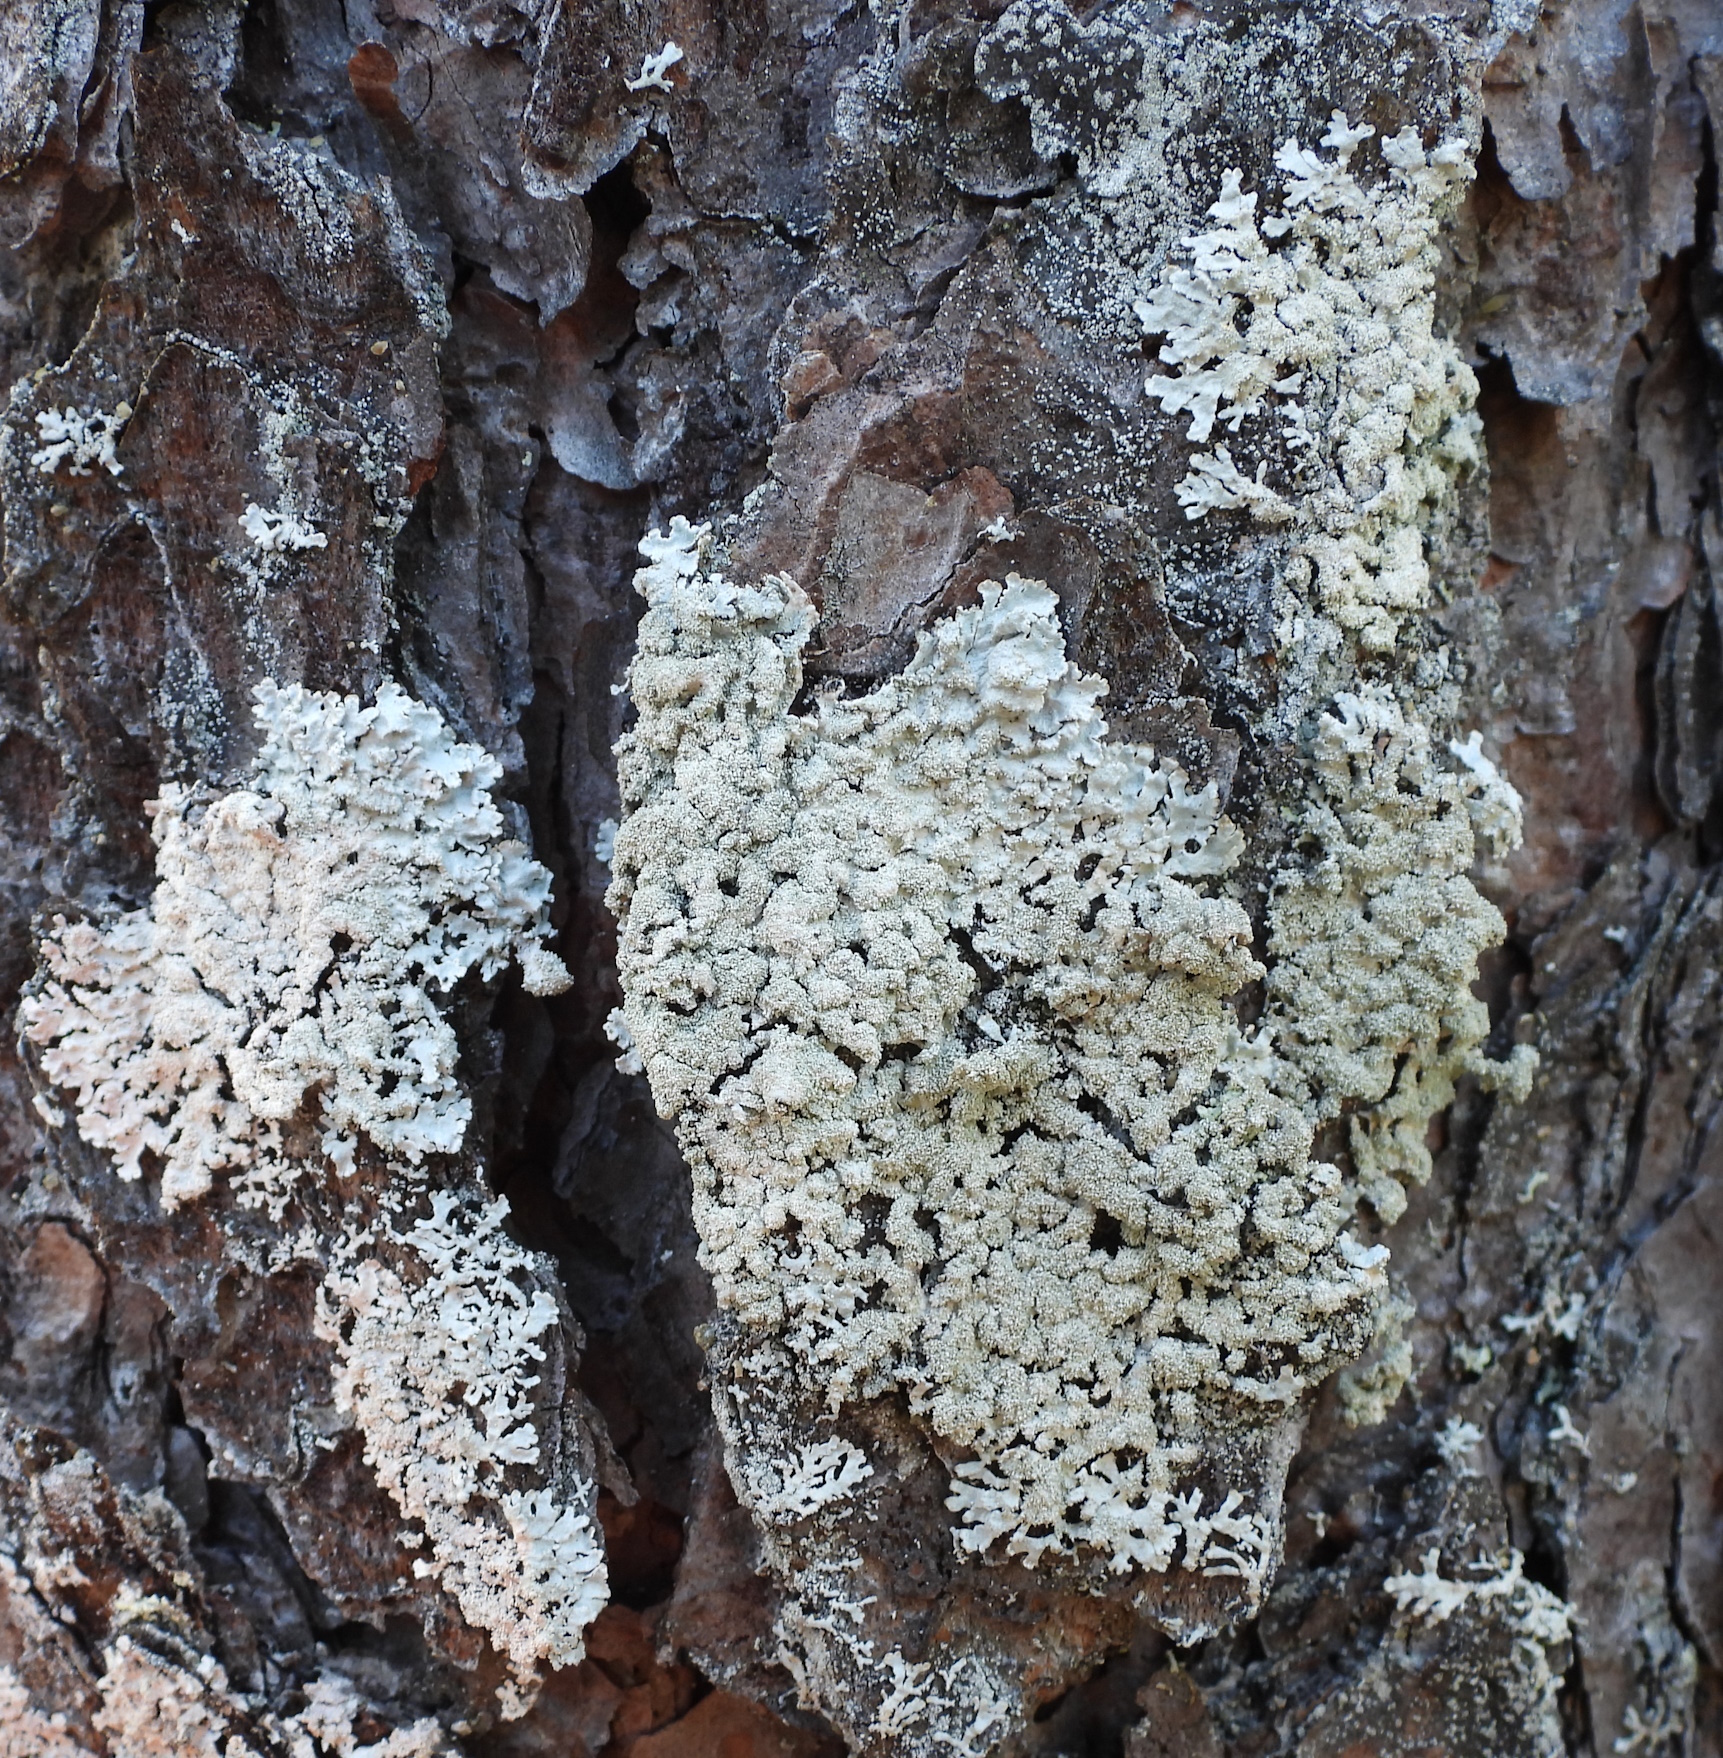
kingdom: Fungi
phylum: Ascomycota
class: Lecanoromycetes
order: Lecanorales
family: Parmeliaceae
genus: Imshaugia
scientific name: Imshaugia aleurites
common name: Salted starburst lichen
